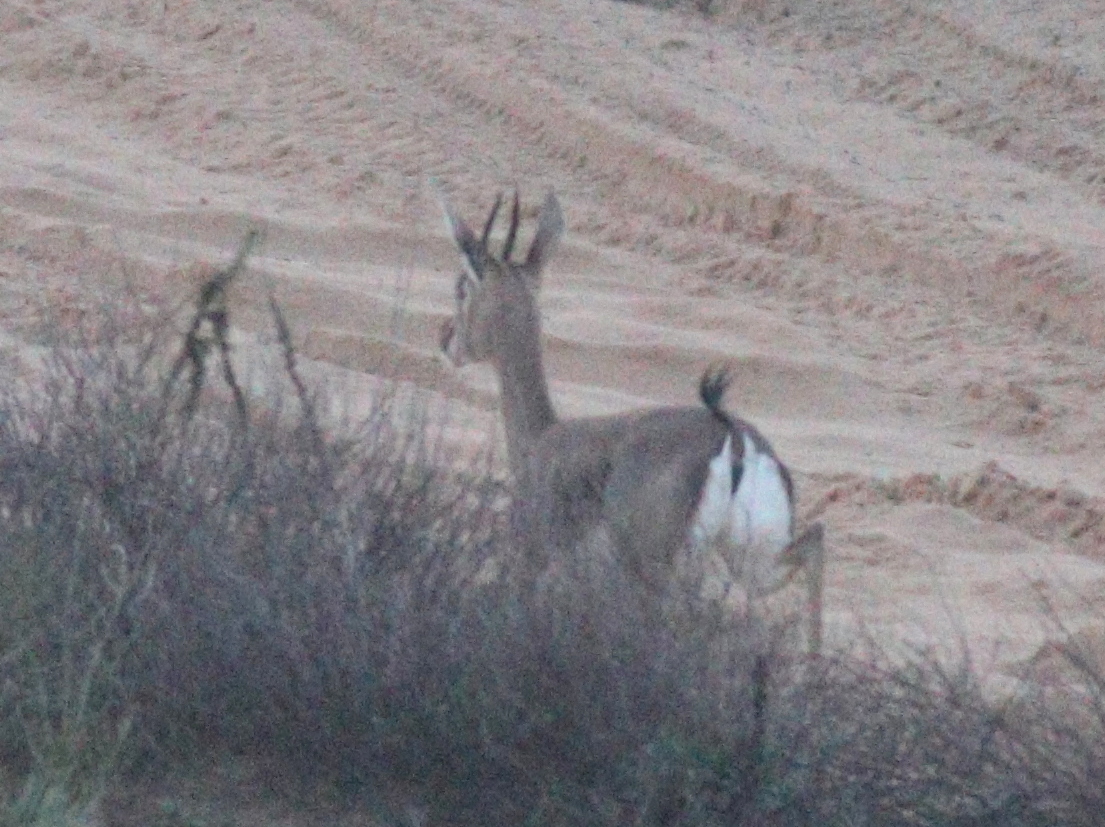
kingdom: Animalia
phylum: Chordata
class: Mammalia
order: Artiodactyla
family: Bovidae
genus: Gazella
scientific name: Gazella gazella
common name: Mountain gazelle
